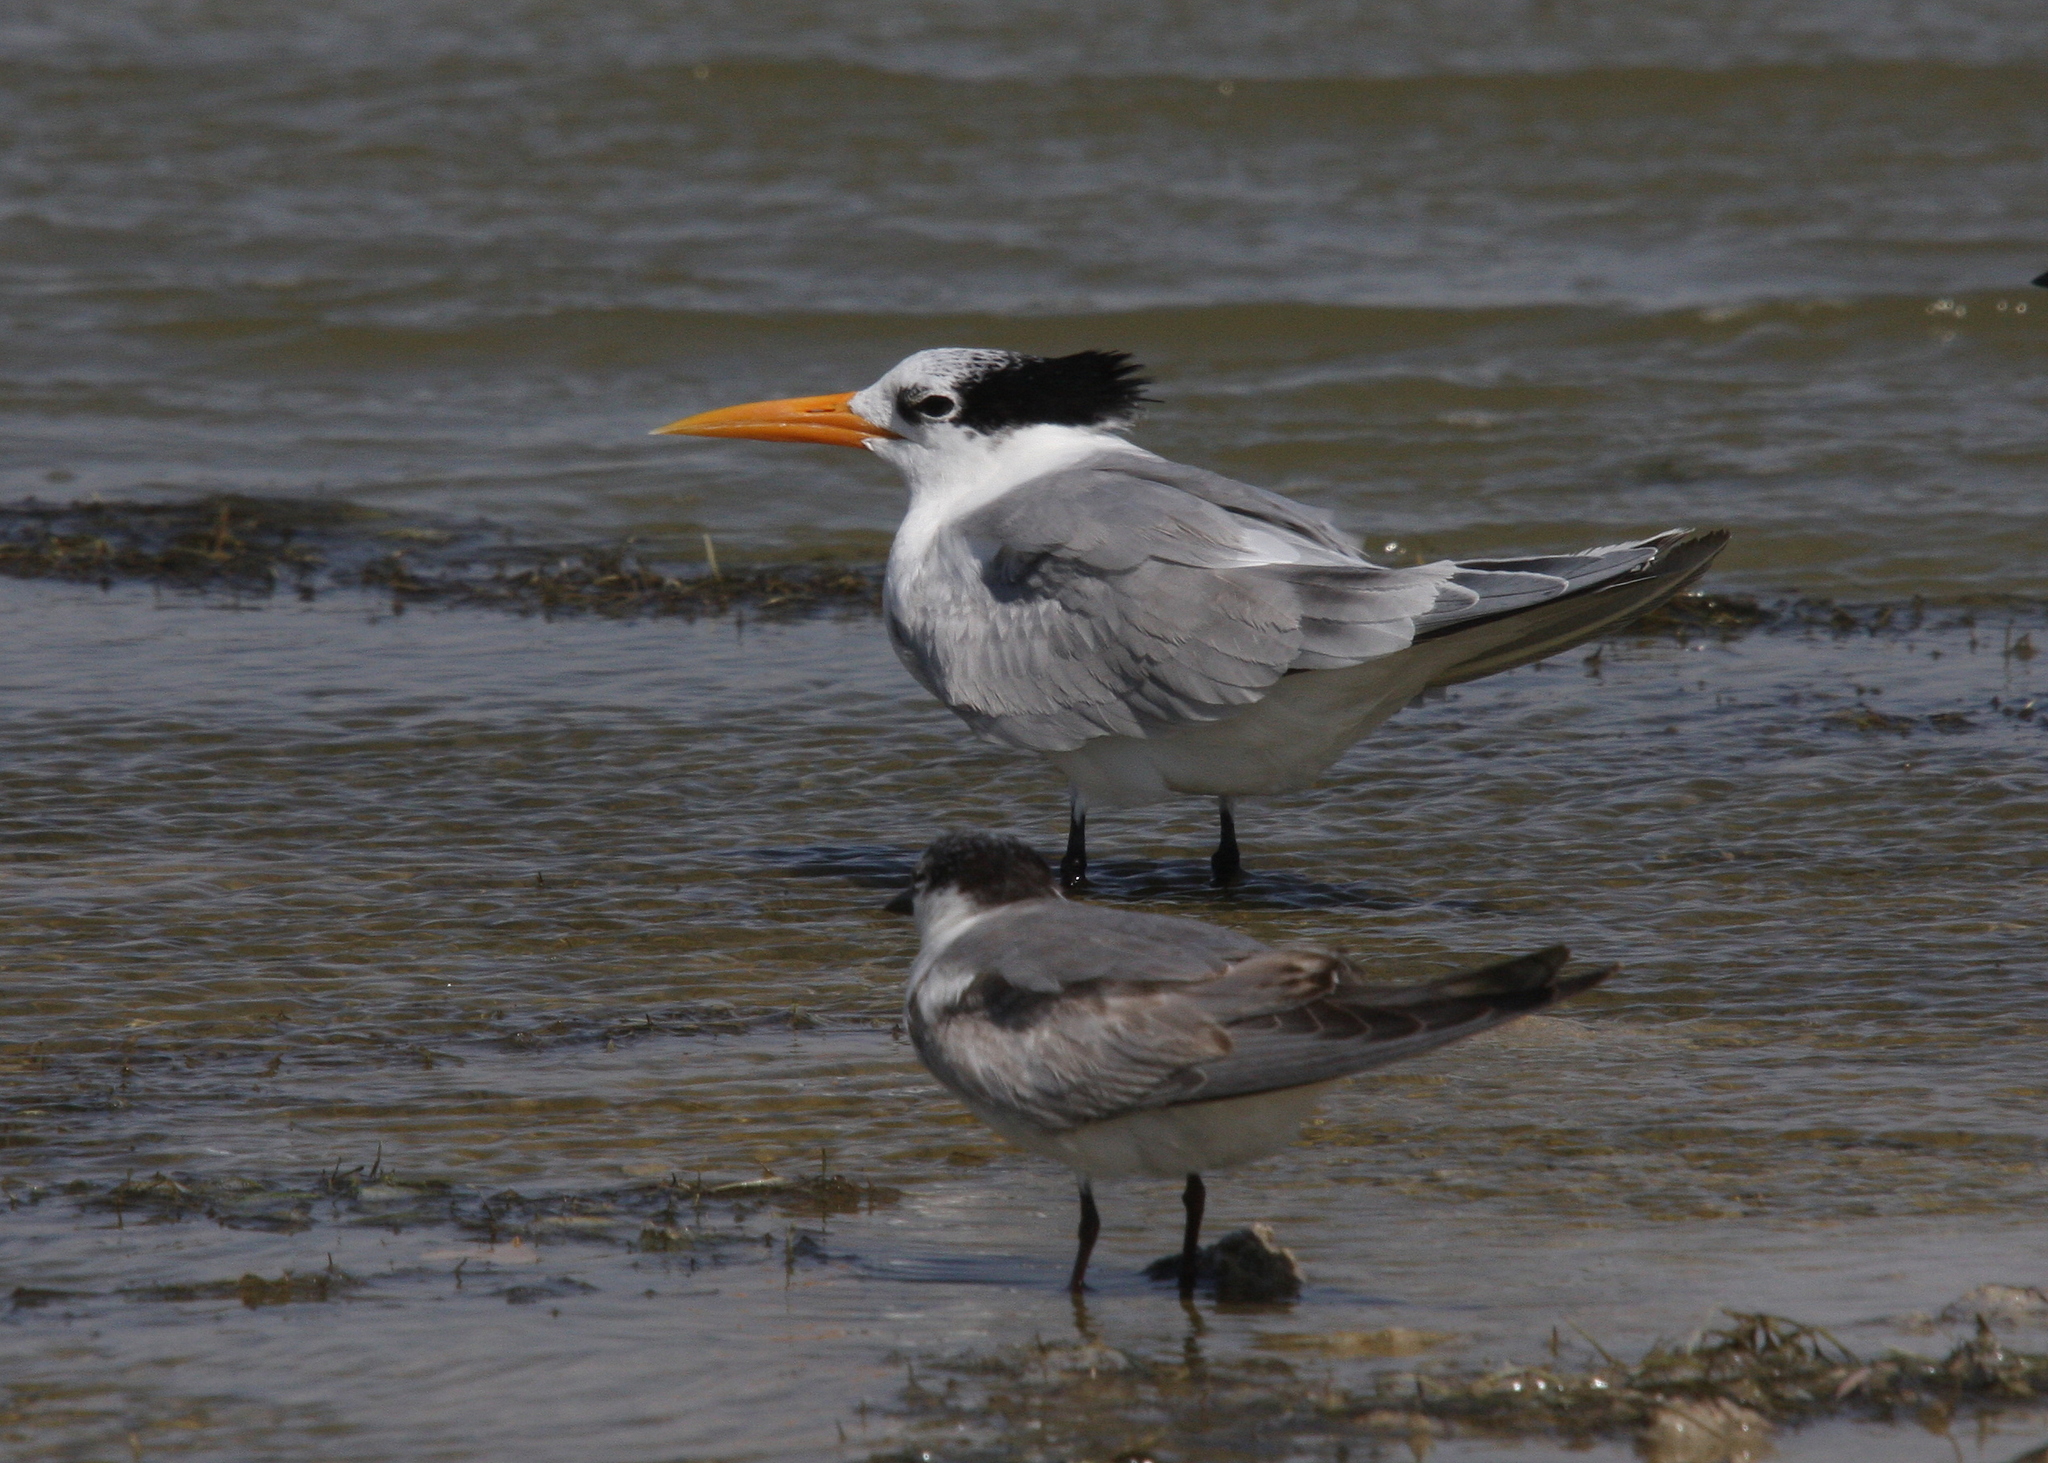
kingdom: Animalia
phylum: Chordata
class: Aves
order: Charadriiformes
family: Laridae
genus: Thalasseus
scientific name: Thalasseus bengalensis
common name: Lesser crested tern
